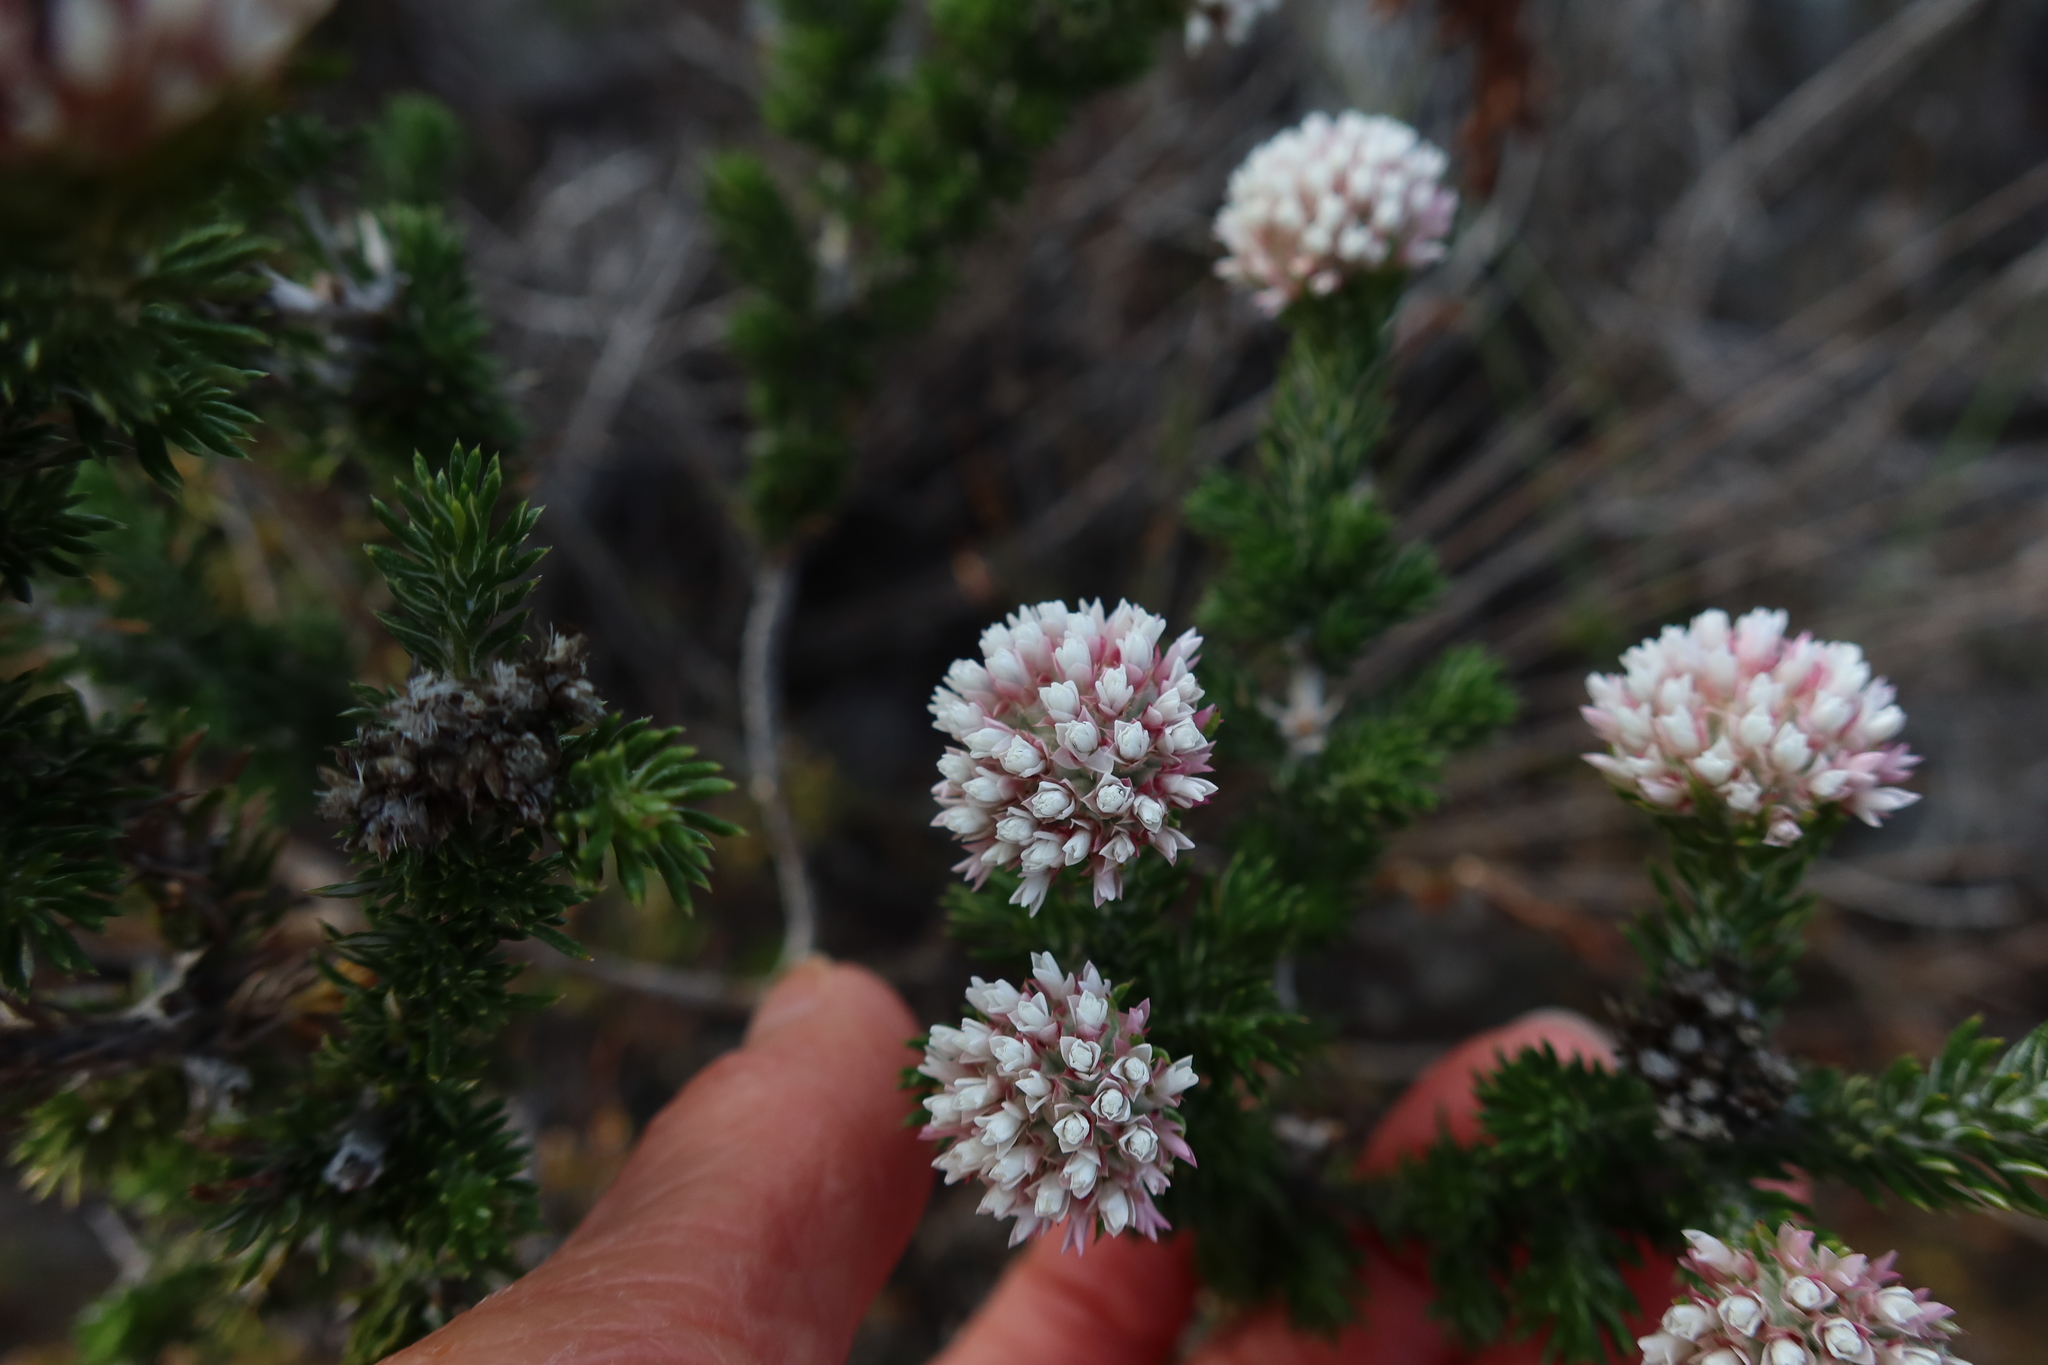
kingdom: Plantae
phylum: Tracheophyta
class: Magnoliopsida
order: Asterales
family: Asteraceae
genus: Metalasia
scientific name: Metalasia compacta
